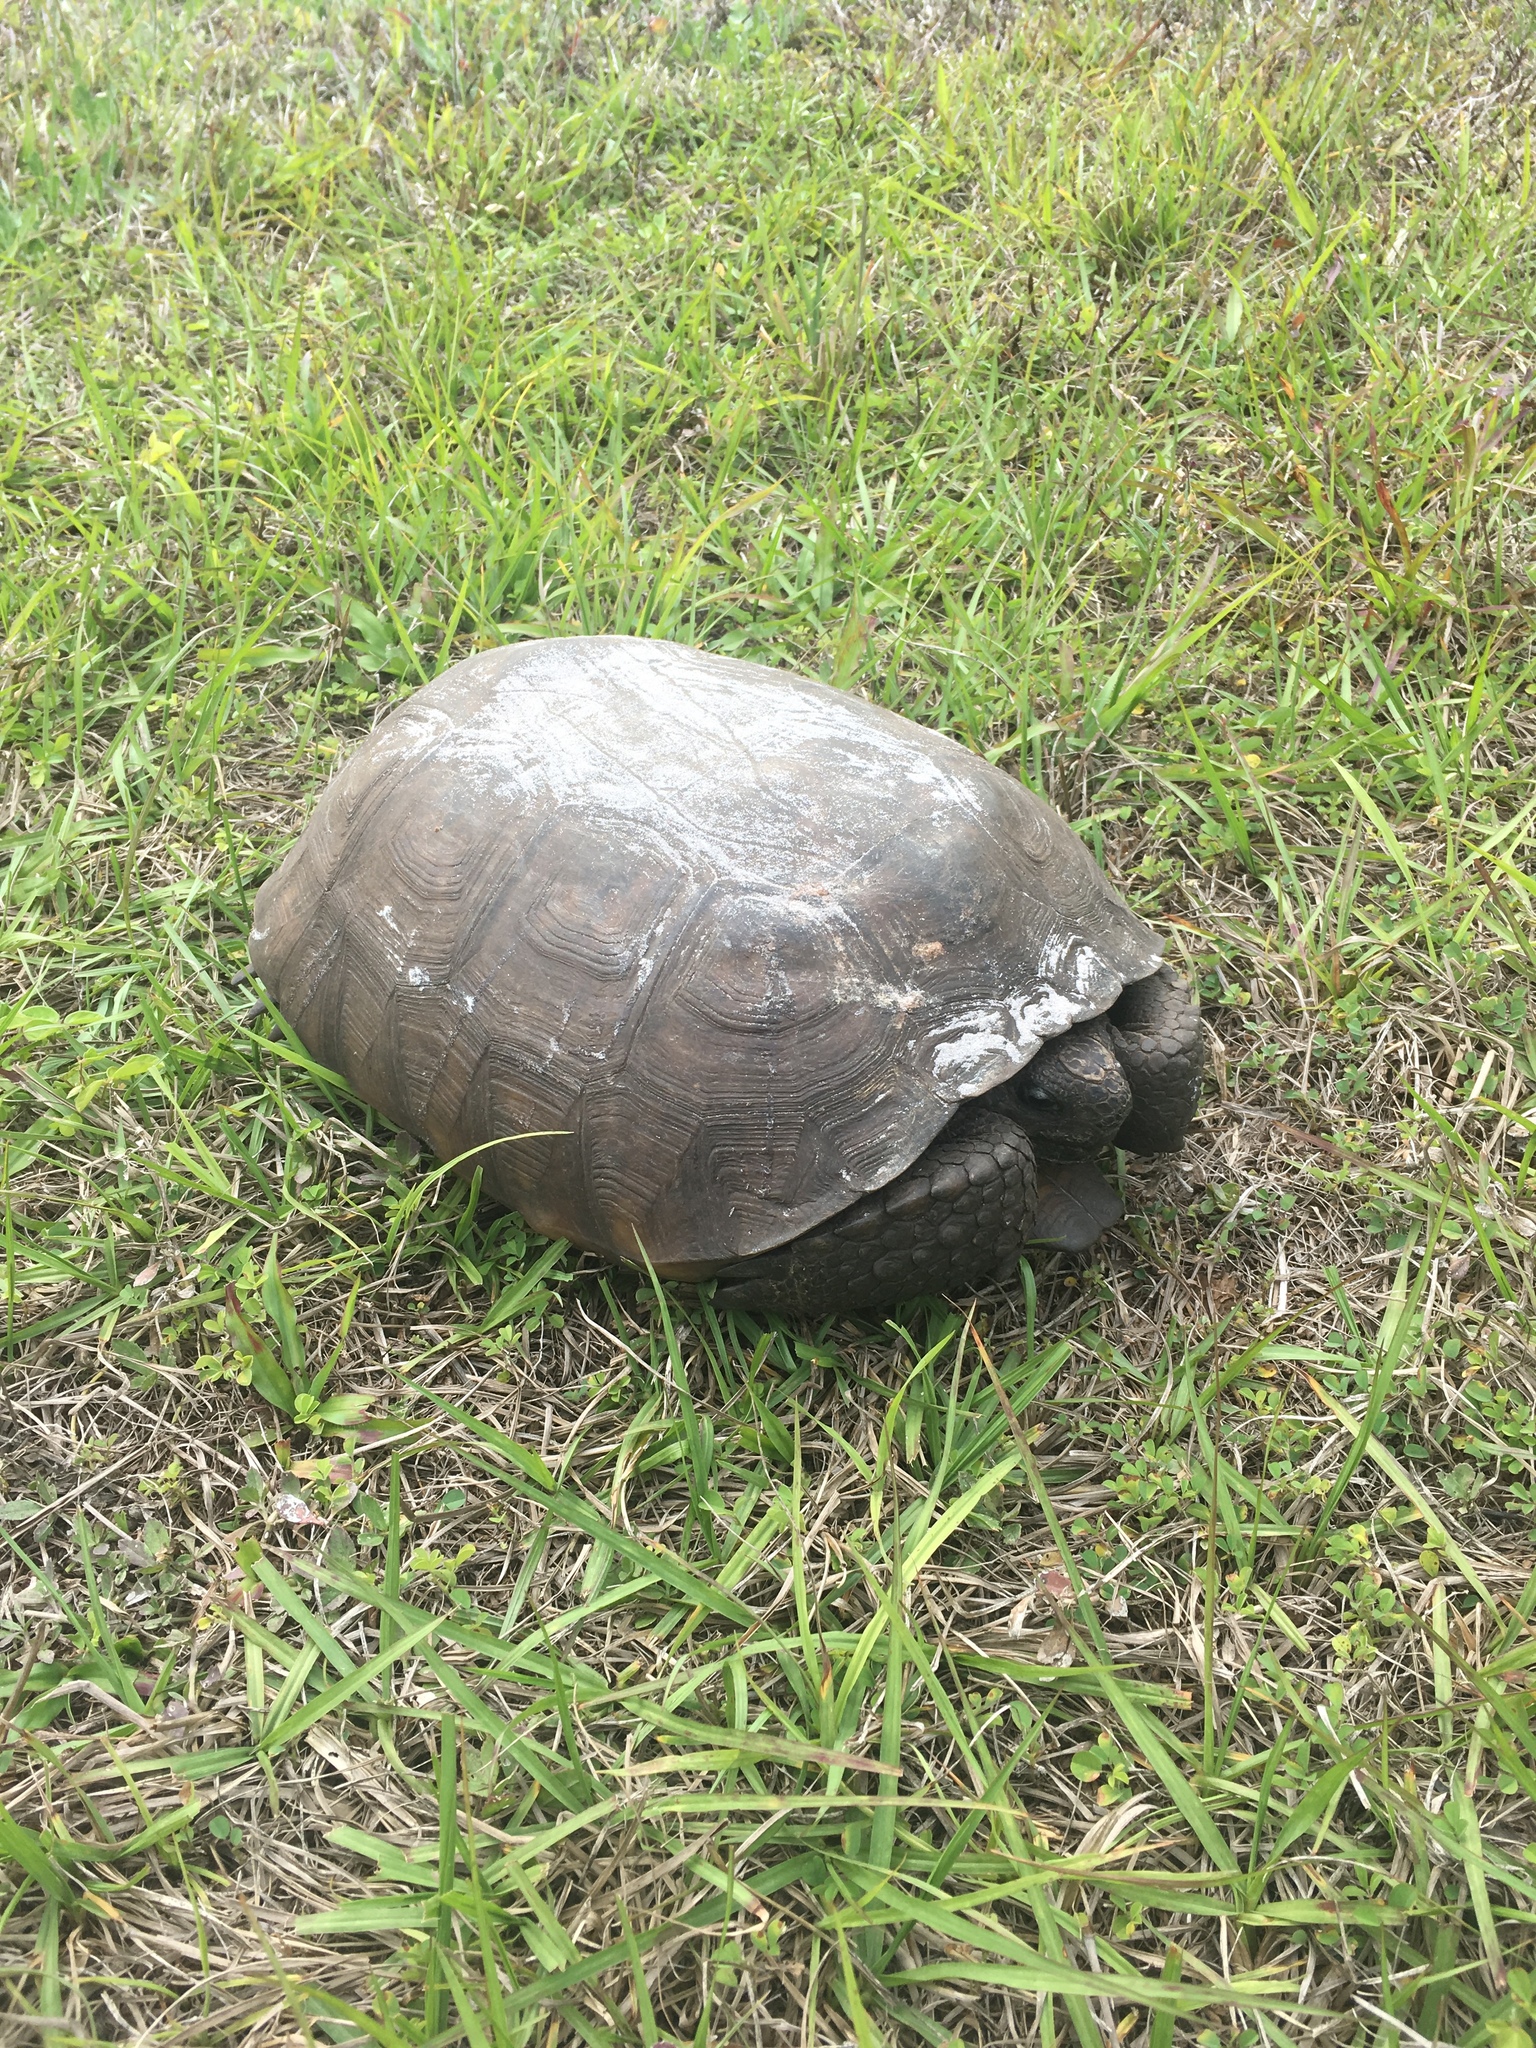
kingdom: Animalia
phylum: Chordata
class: Testudines
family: Testudinidae
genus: Gopherus
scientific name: Gopherus polyphemus
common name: Florida gopher tortoise
